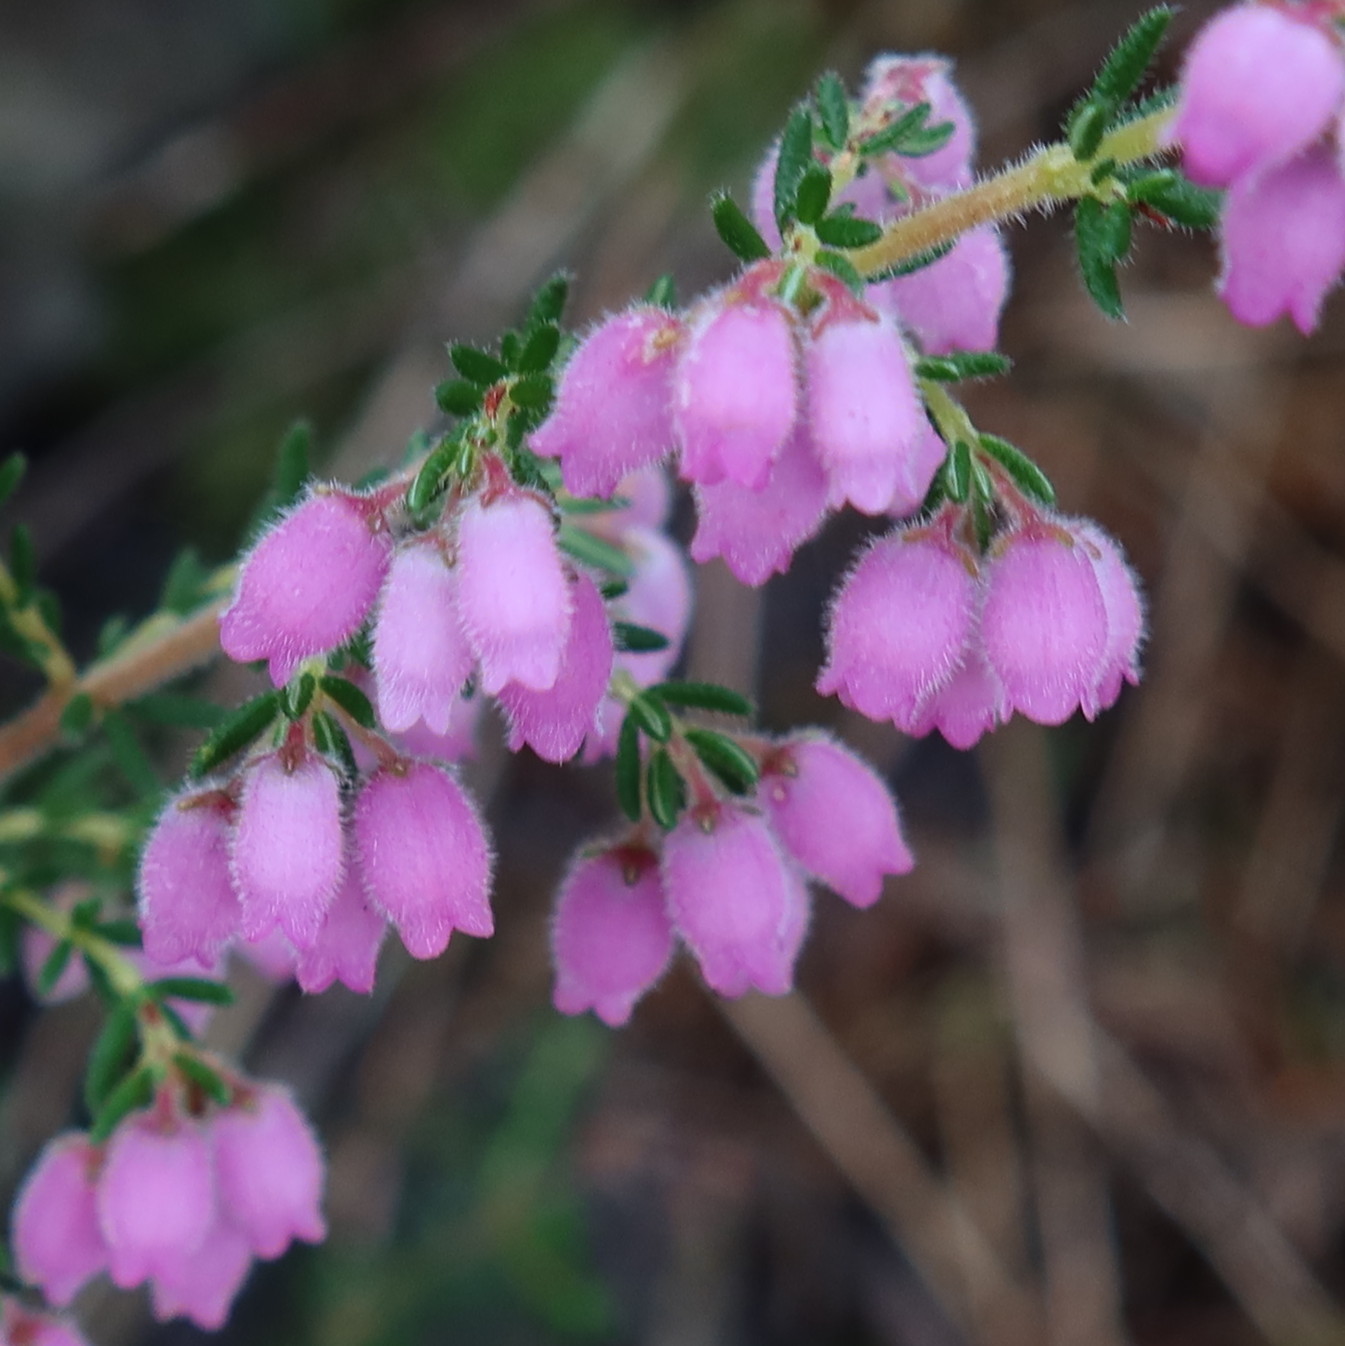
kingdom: Plantae
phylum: Tracheophyta
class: Magnoliopsida
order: Ericales
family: Ericaceae
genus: Erica
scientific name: Erica hirtiflora
